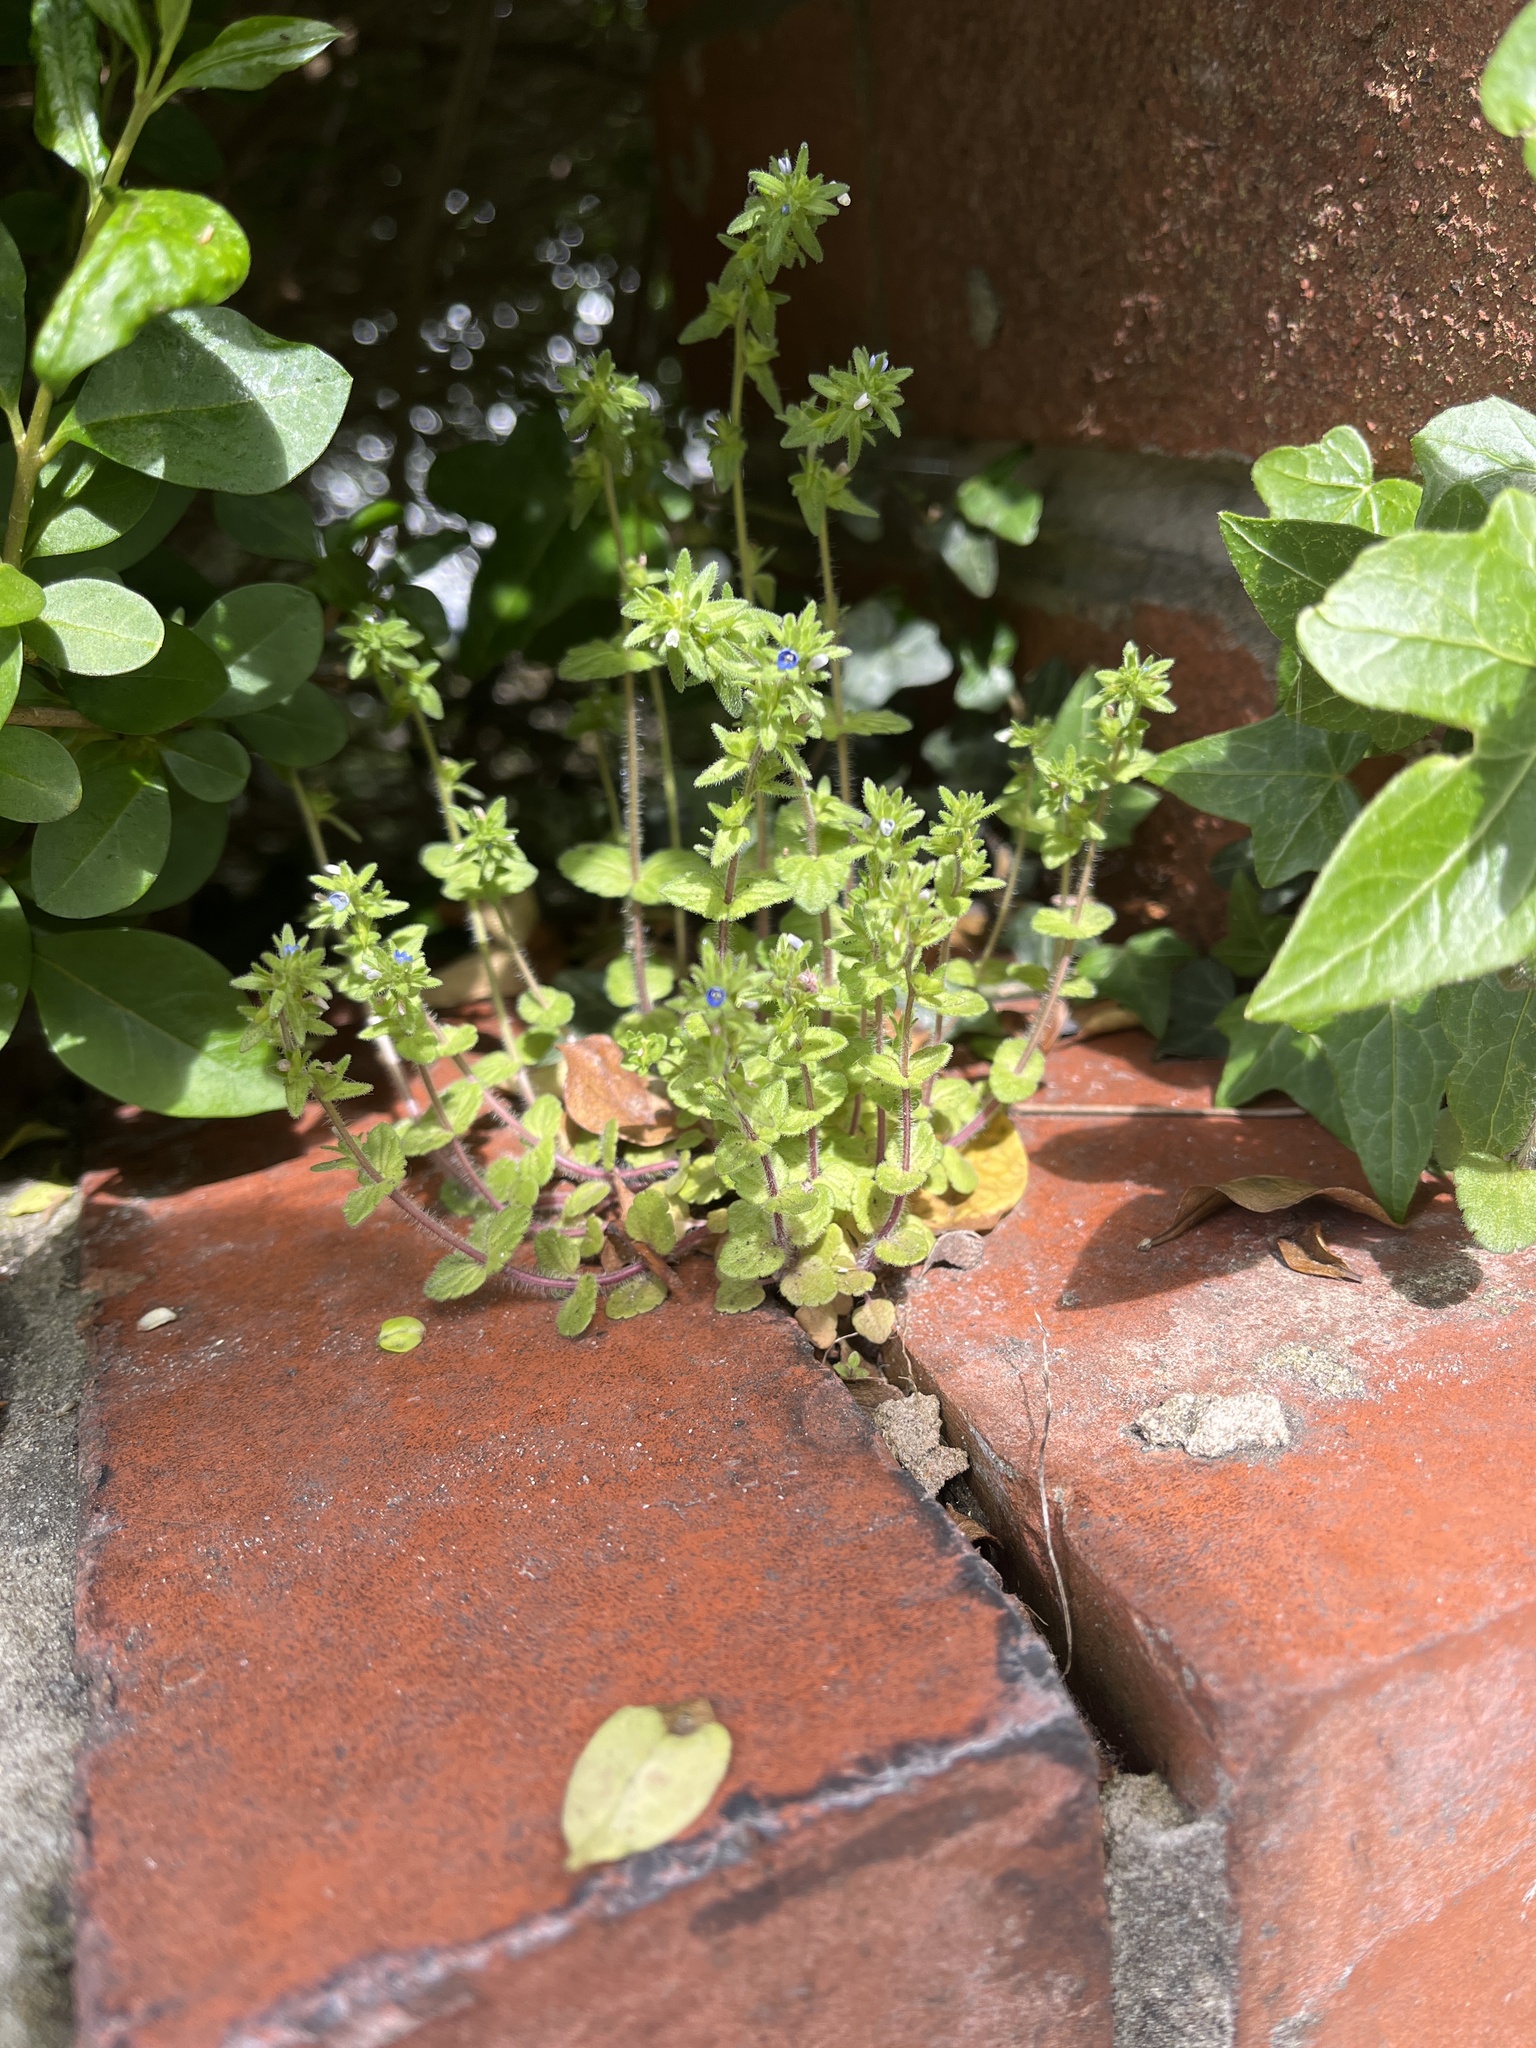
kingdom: Plantae
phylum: Tracheophyta
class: Magnoliopsida
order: Lamiales
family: Plantaginaceae
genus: Veronica
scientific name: Veronica arvensis
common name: Corn speedwell
